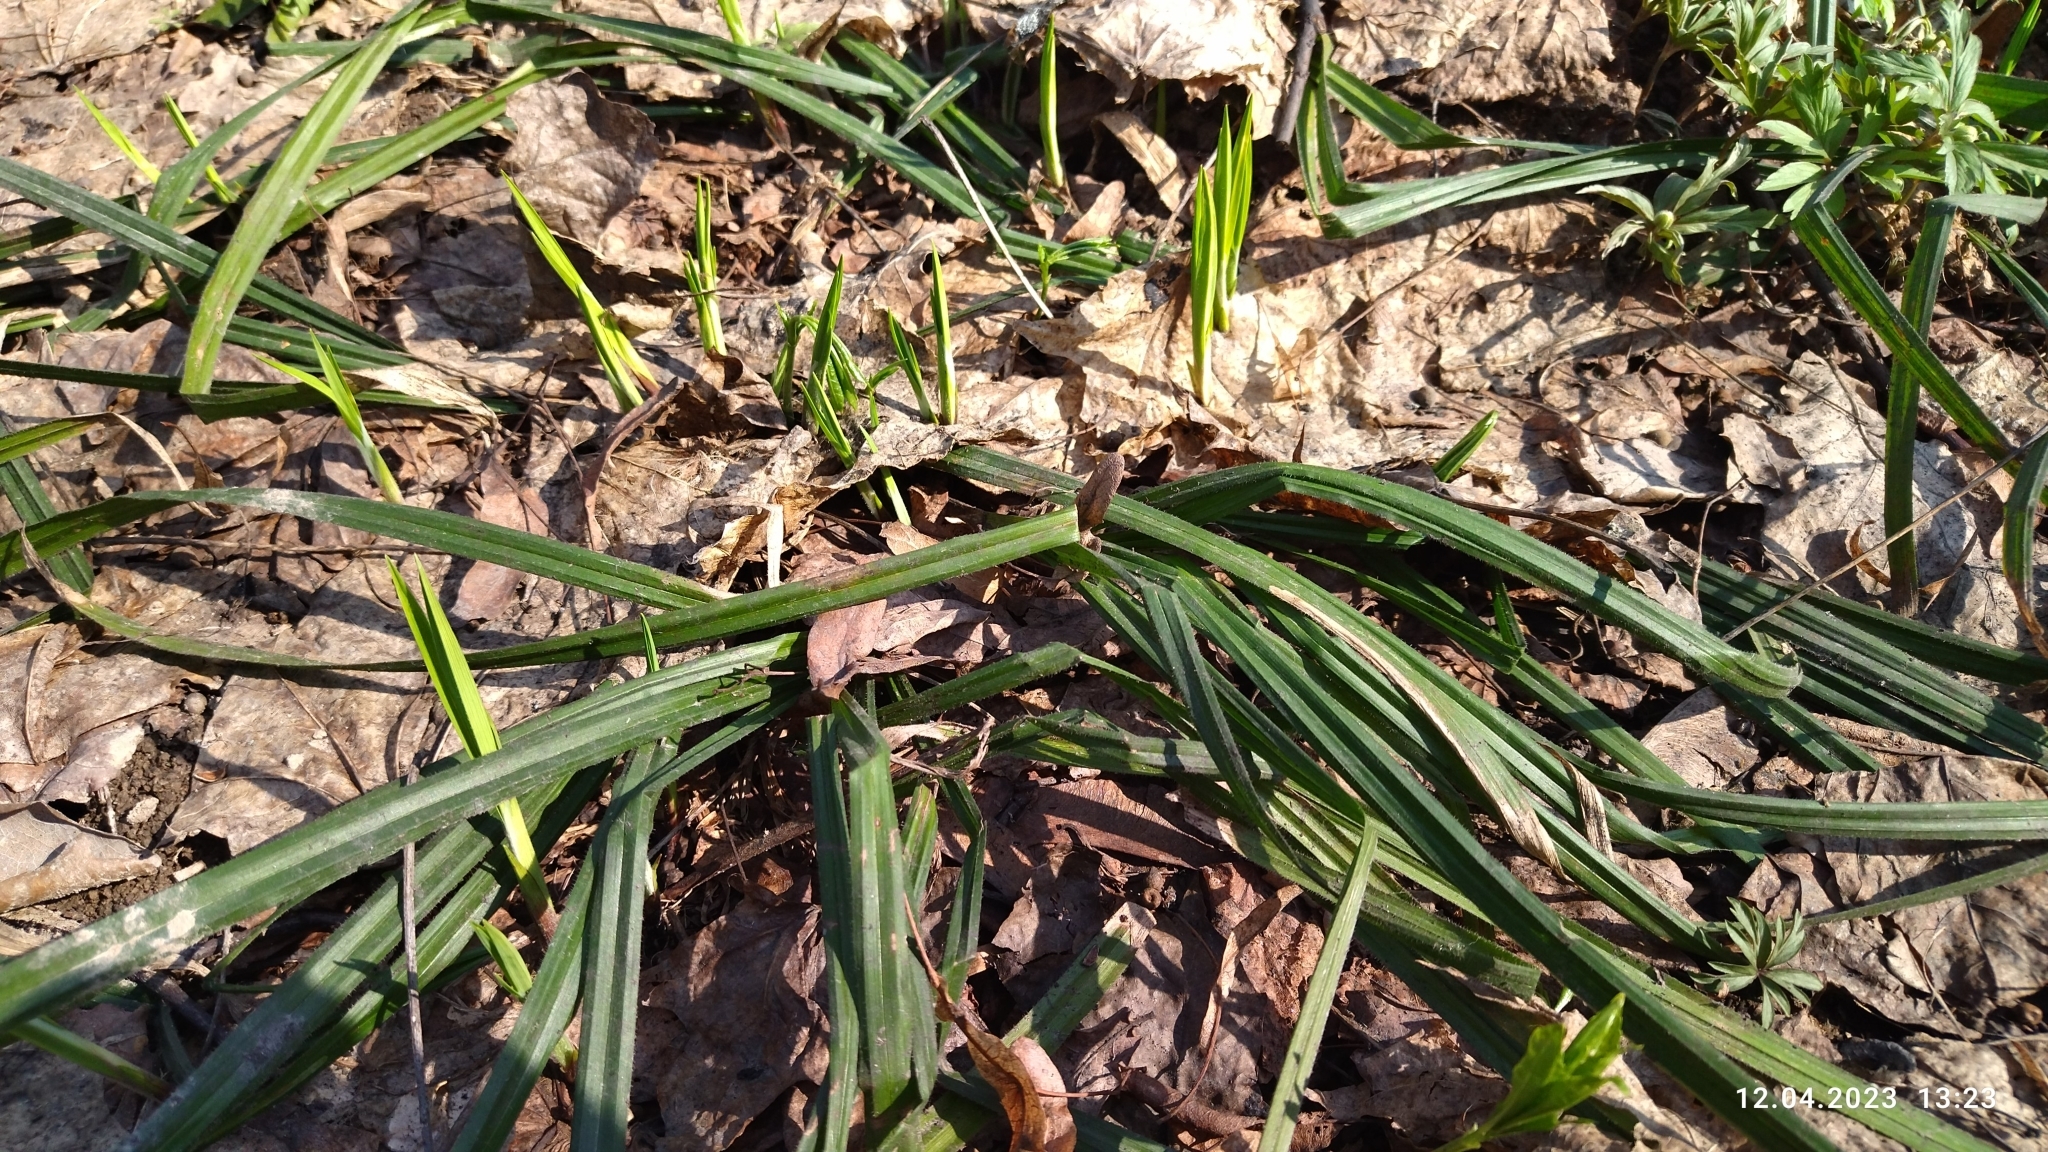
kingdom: Plantae
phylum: Tracheophyta
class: Liliopsida
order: Poales
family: Cyperaceae
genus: Carex
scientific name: Carex pilosa
